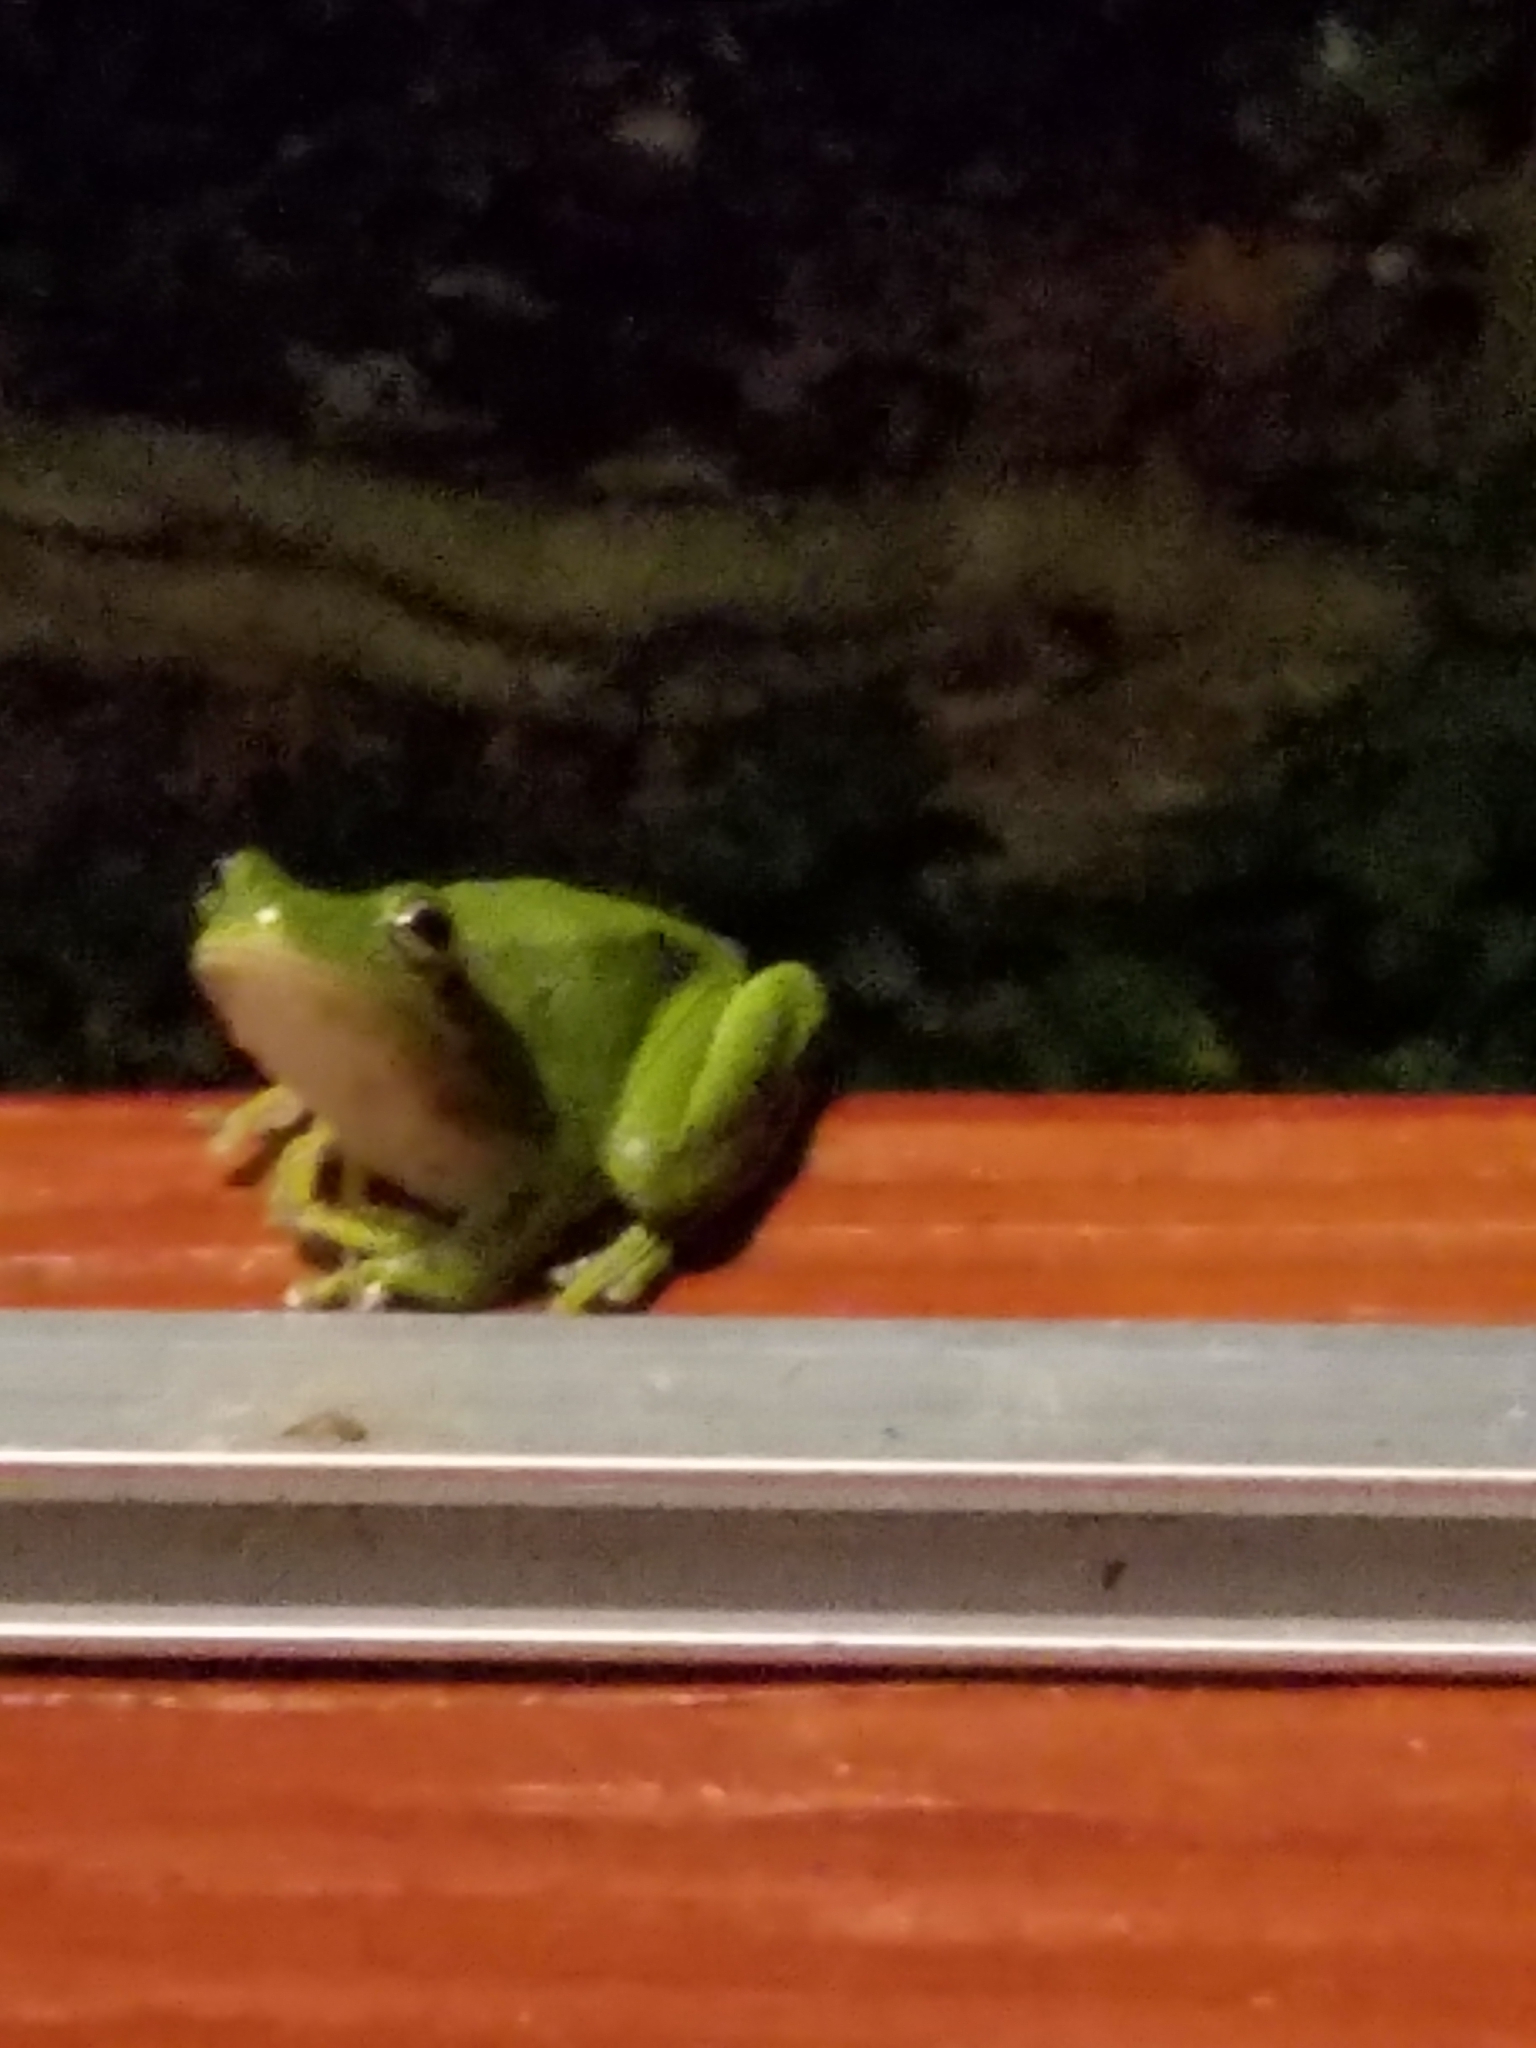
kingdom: Animalia
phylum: Chordata
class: Amphibia
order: Anura
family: Hylidae
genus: Dryophytes
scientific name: Dryophytes cinereus
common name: Green treefrog
